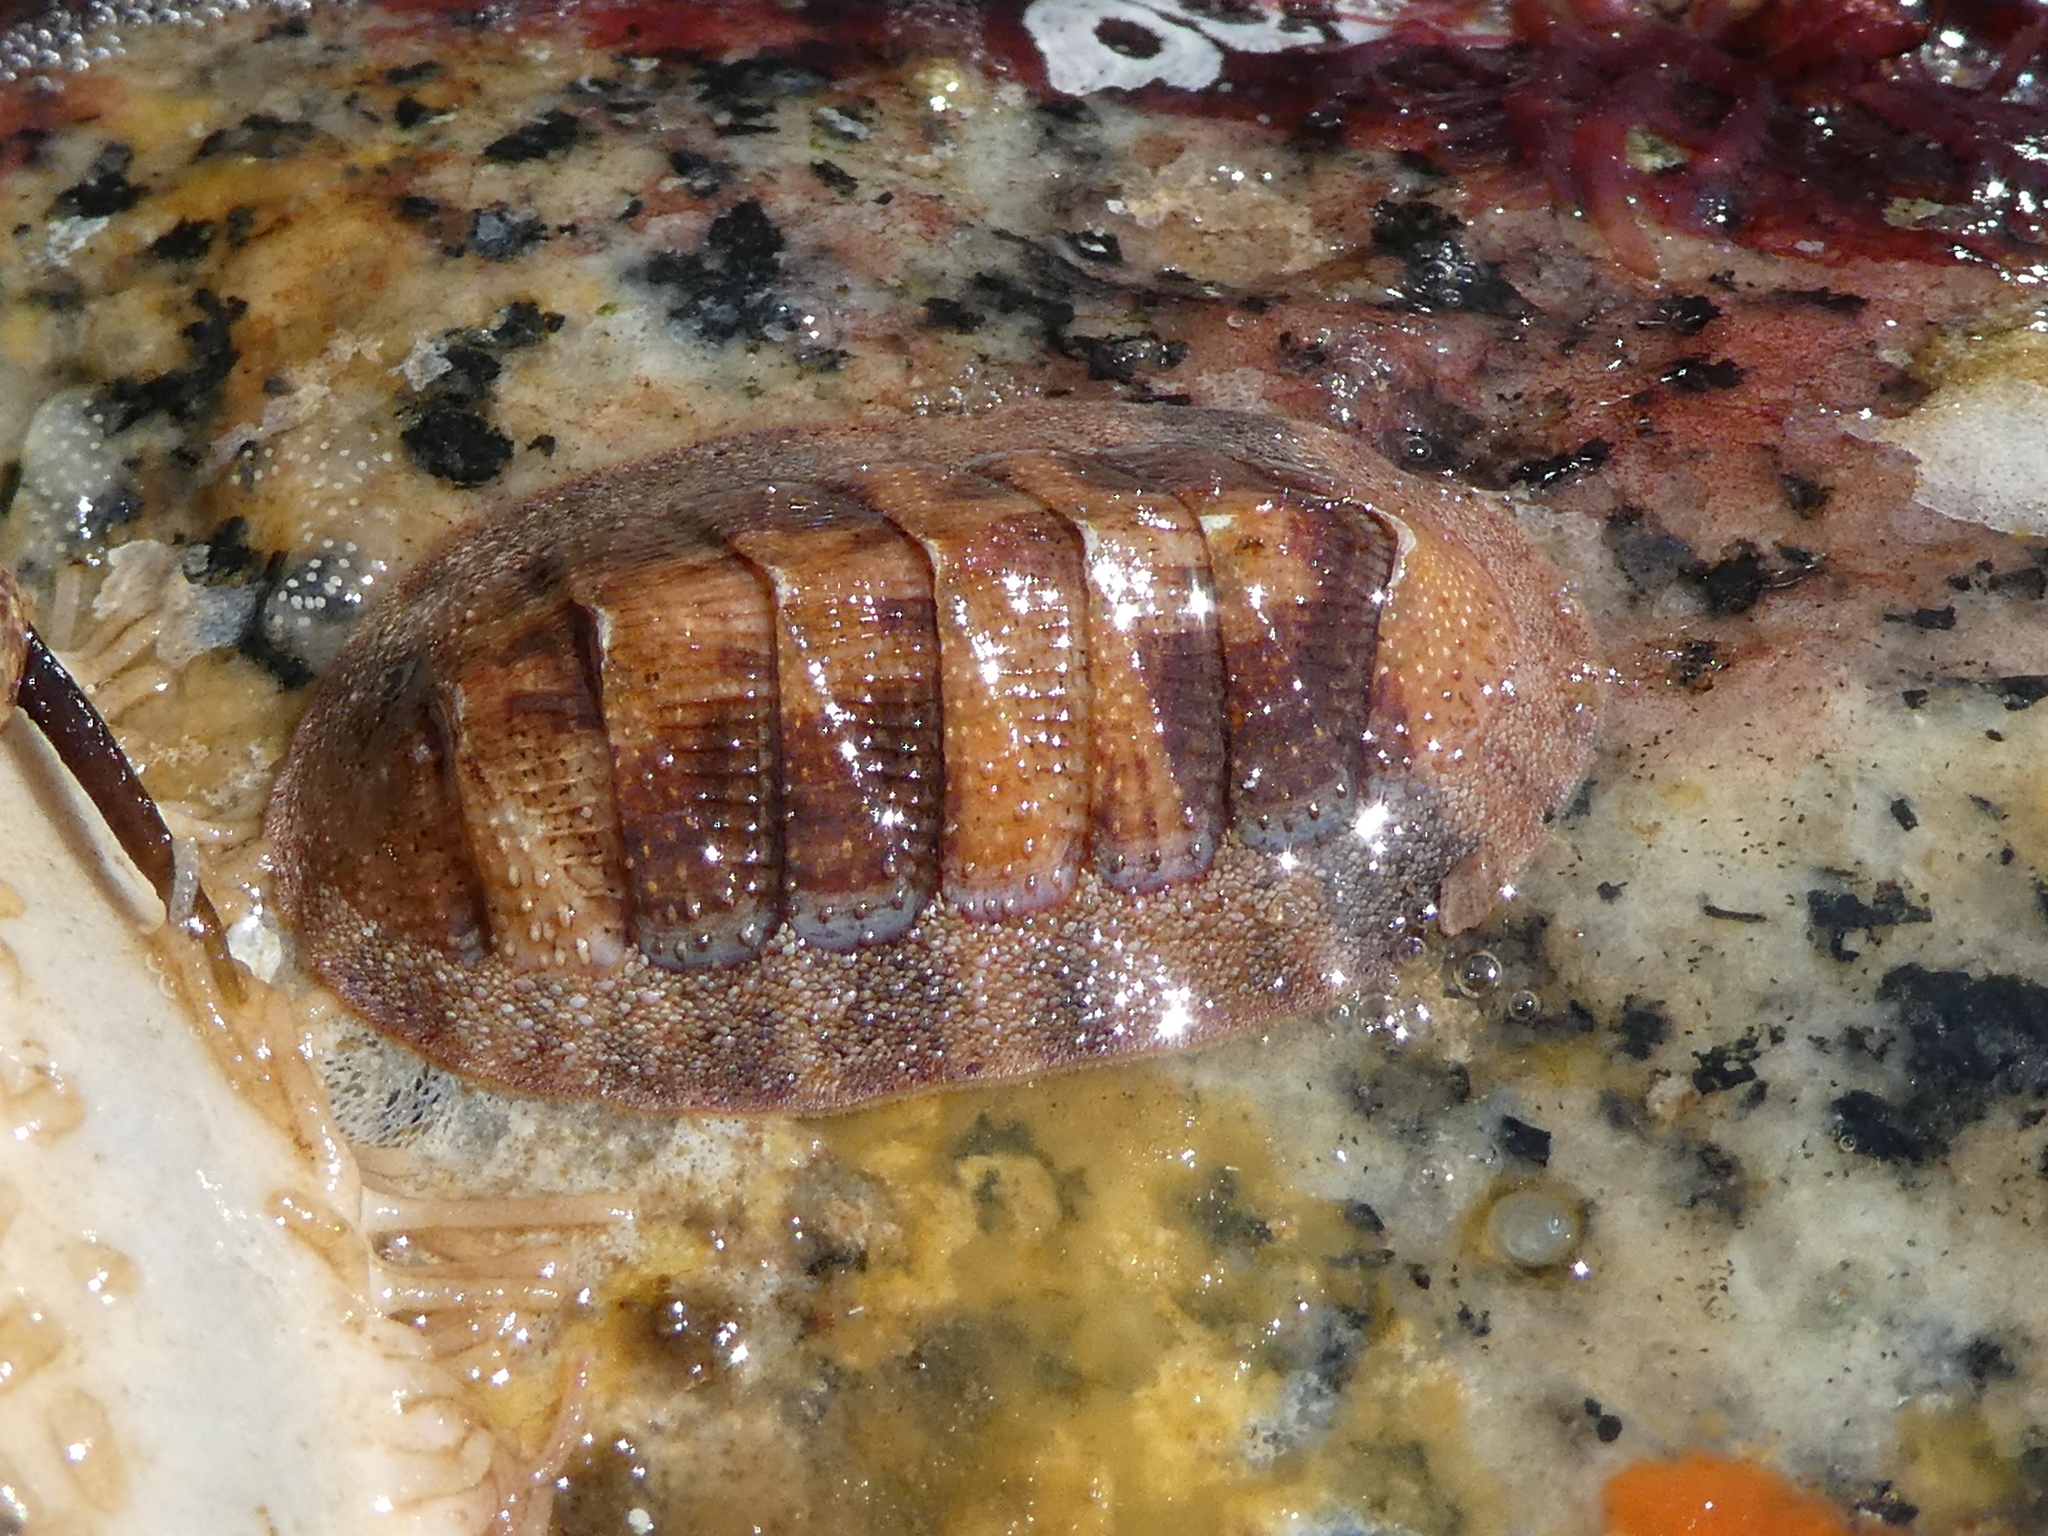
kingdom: Animalia
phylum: Mollusca
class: Polyplacophora
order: Chitonida
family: Ischnochitonidae
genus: Lepidozona
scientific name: Lepidozona mertensii
